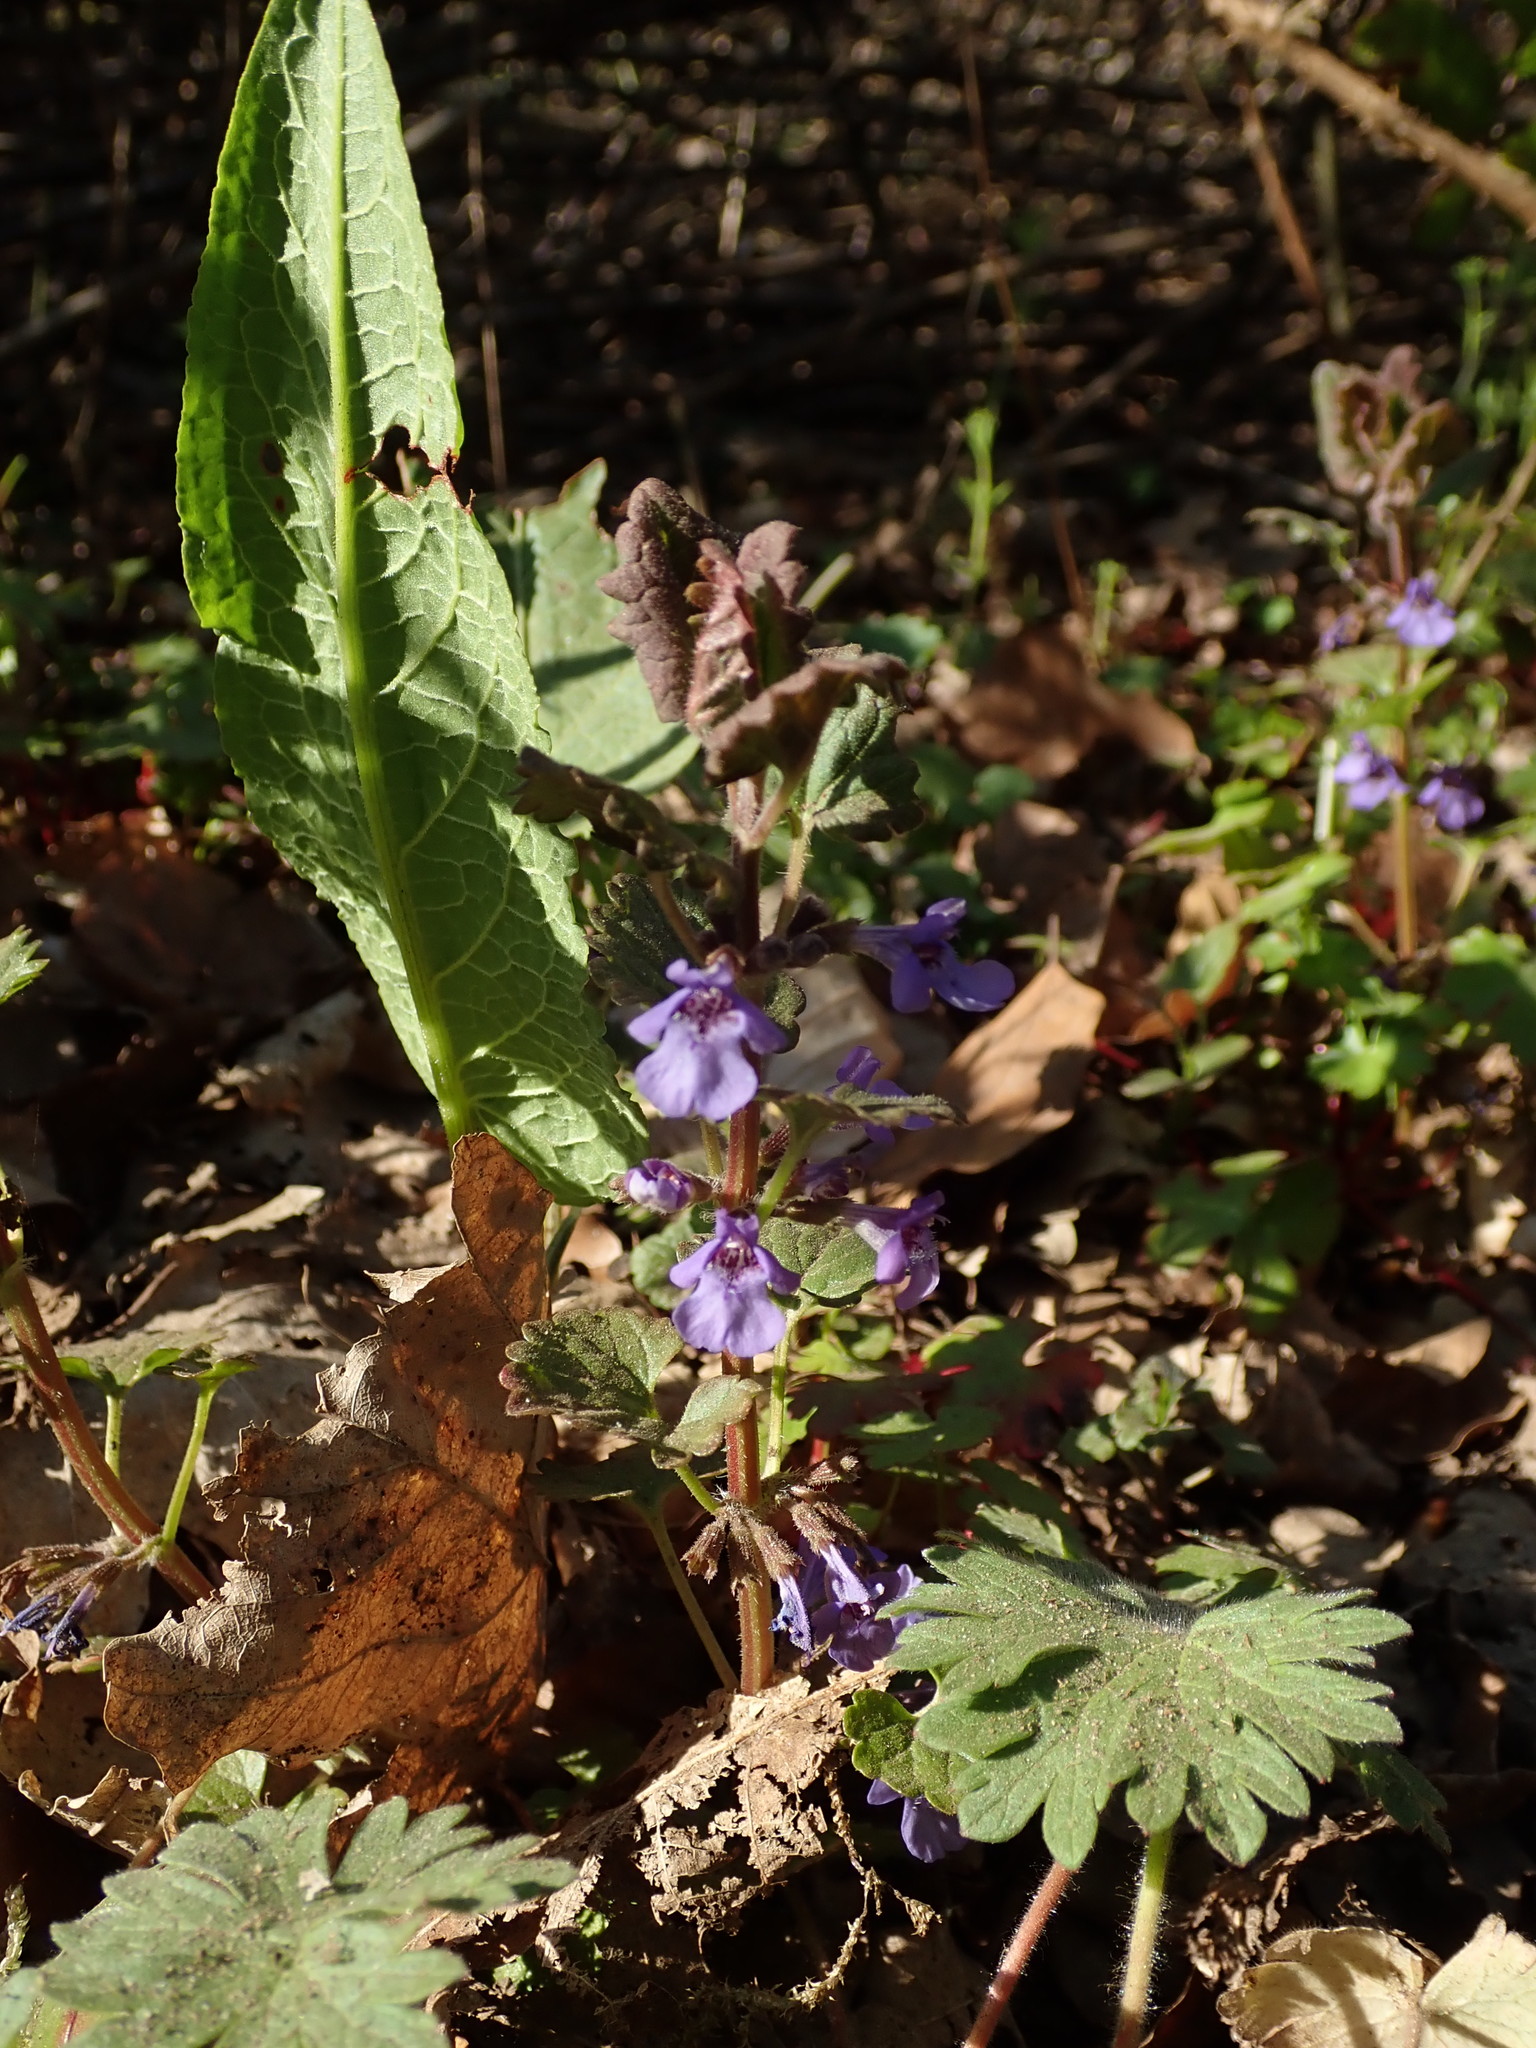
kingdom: Plantae
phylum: Tracheophyta
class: Magnoliopsida
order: Lamiales
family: Lamiaceae
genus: Glechoma
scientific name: Glechoma hederacea
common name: Ground ivy
